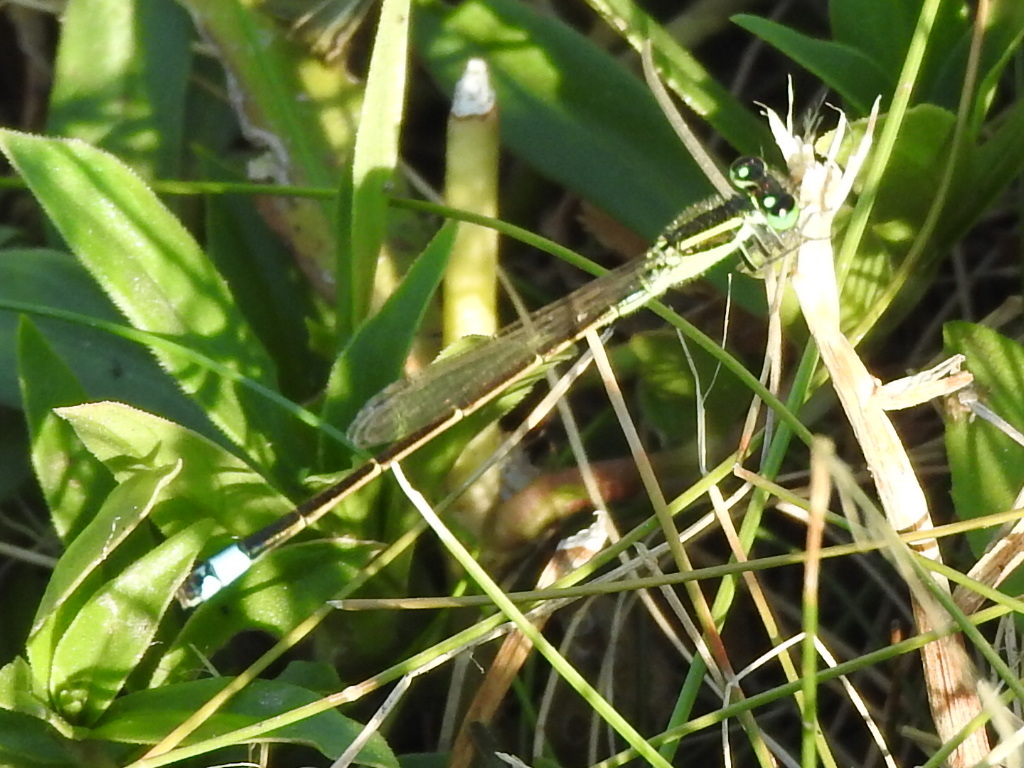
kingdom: Animalia
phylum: Arthropoda
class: Insecta
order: Odonata
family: Coenagrionidae
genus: Ischnura
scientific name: Ischnura ramburii
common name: Rambur's forktail
